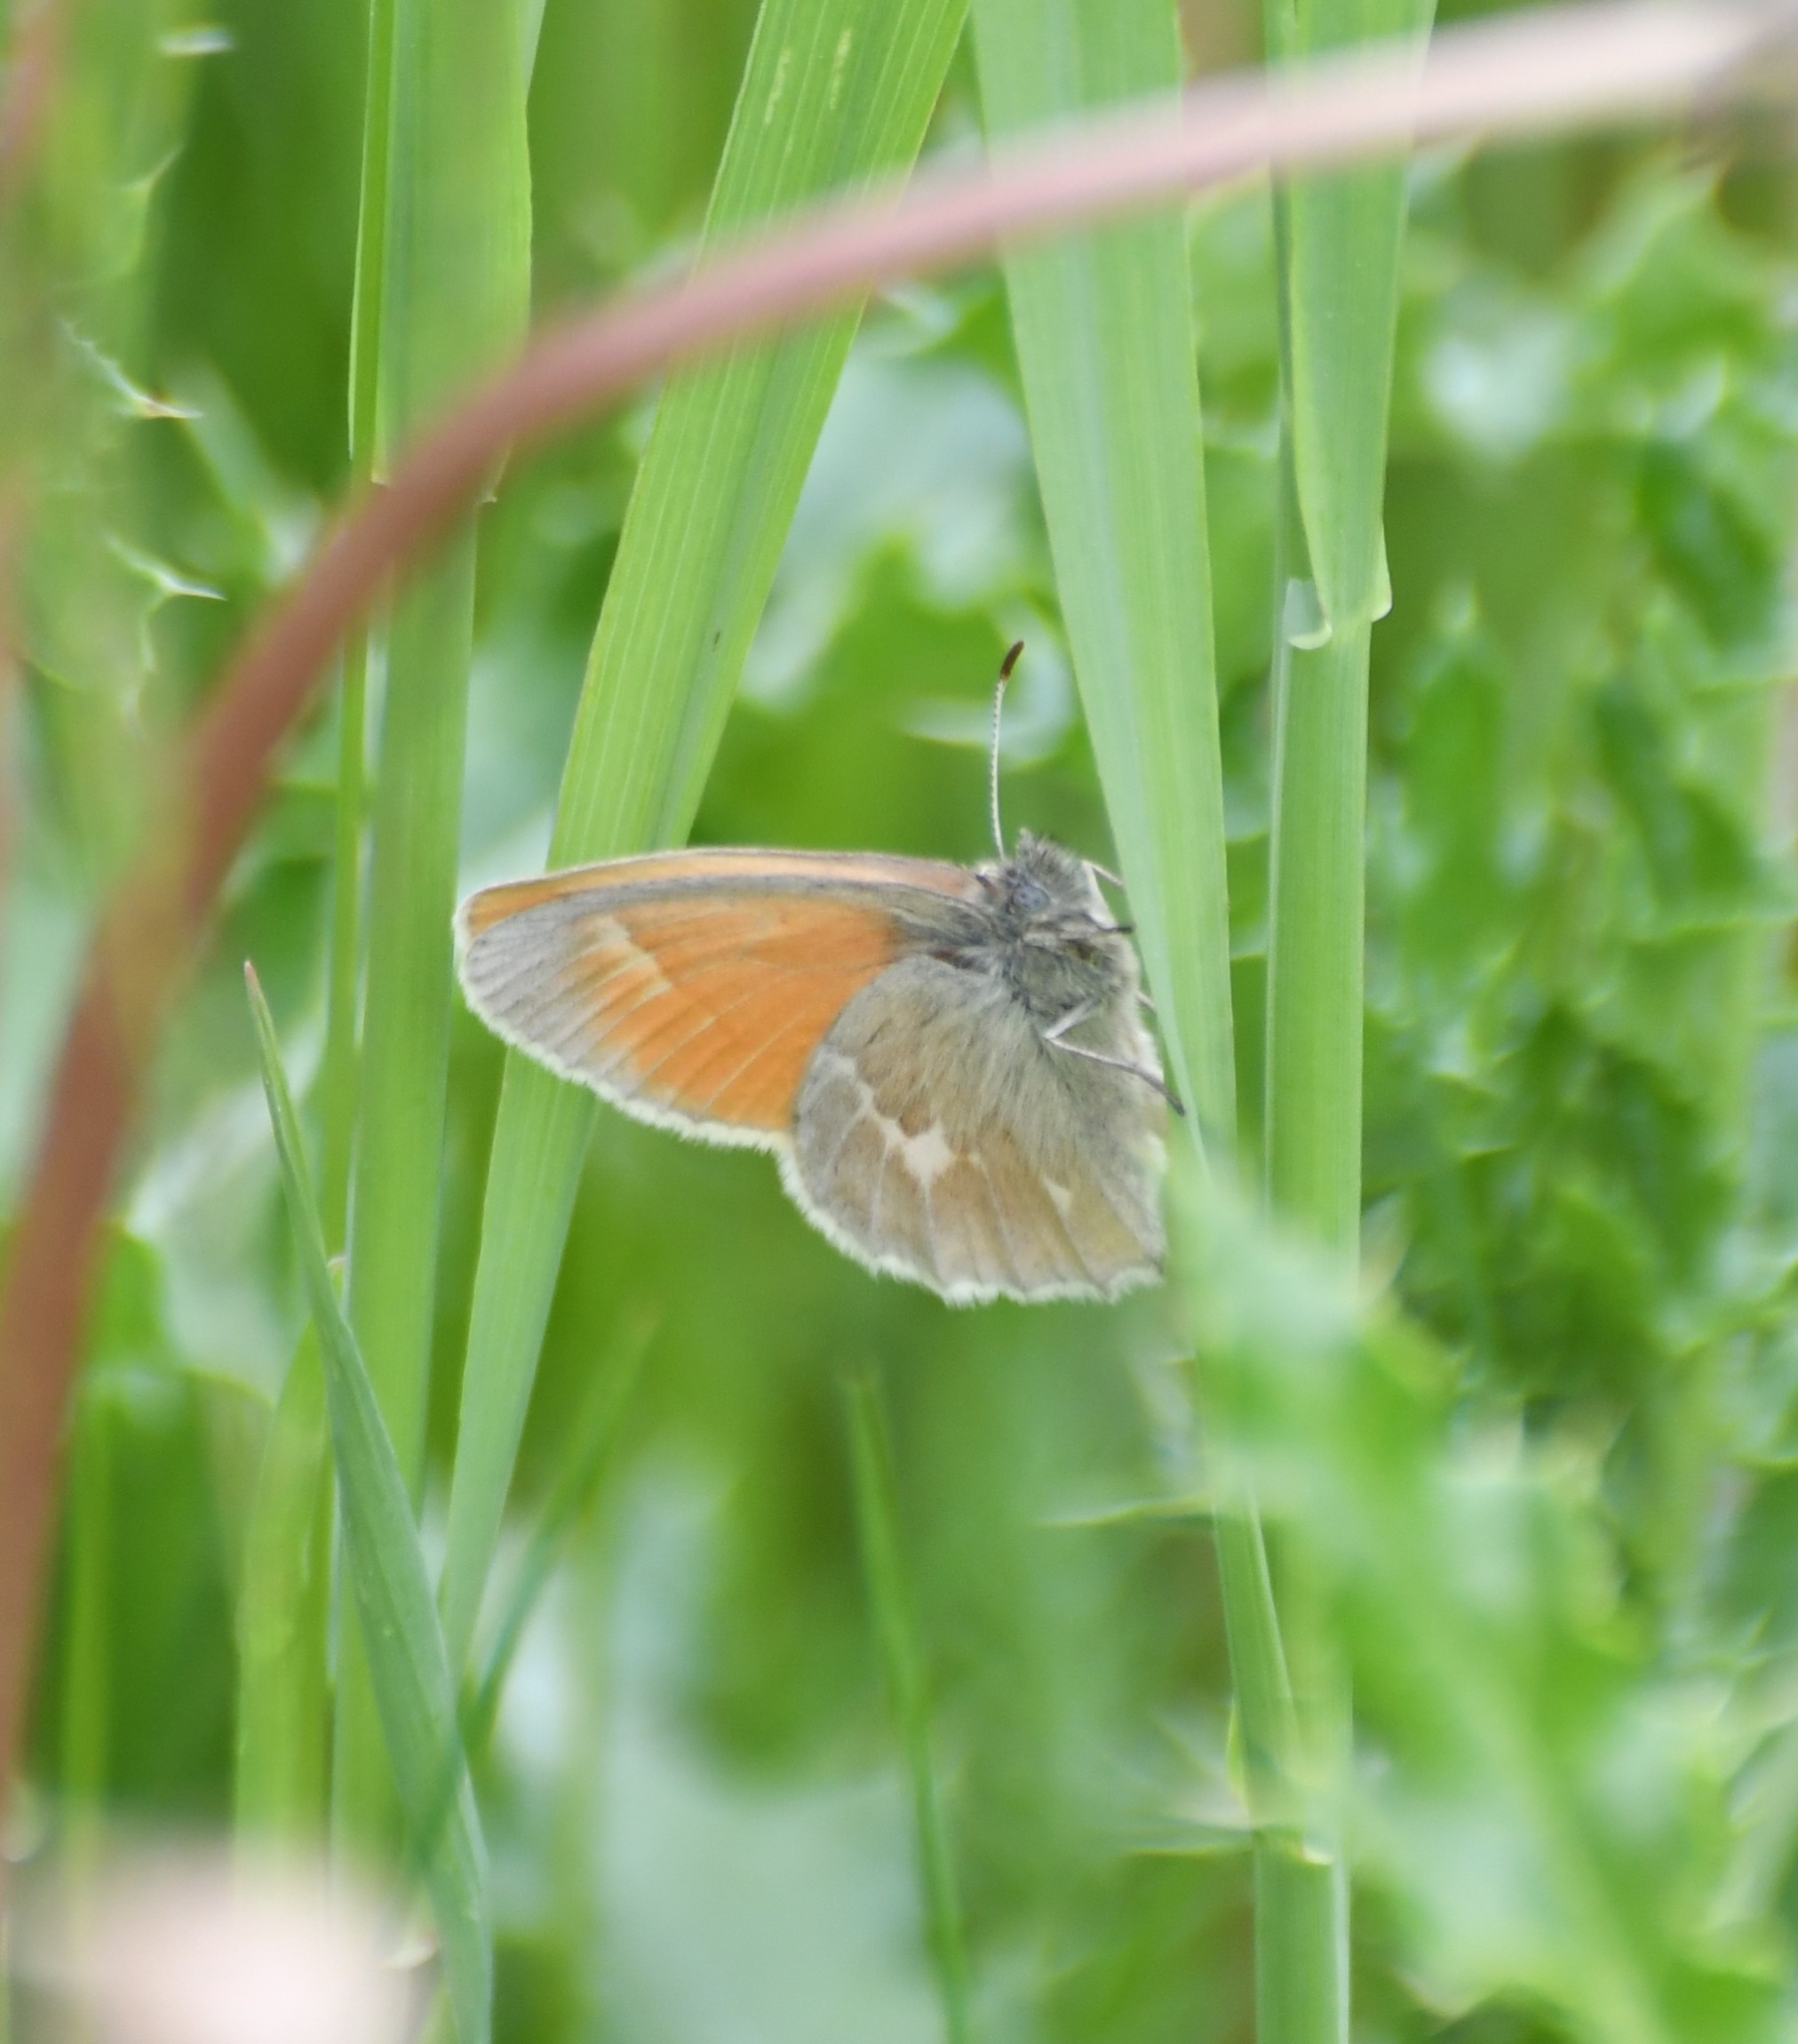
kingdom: Animalia
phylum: Arthropoda
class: Insecta
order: Lepidoptera
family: Nymphalidae
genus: Coenonympha
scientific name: Coenonympha california
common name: Common ringlet
